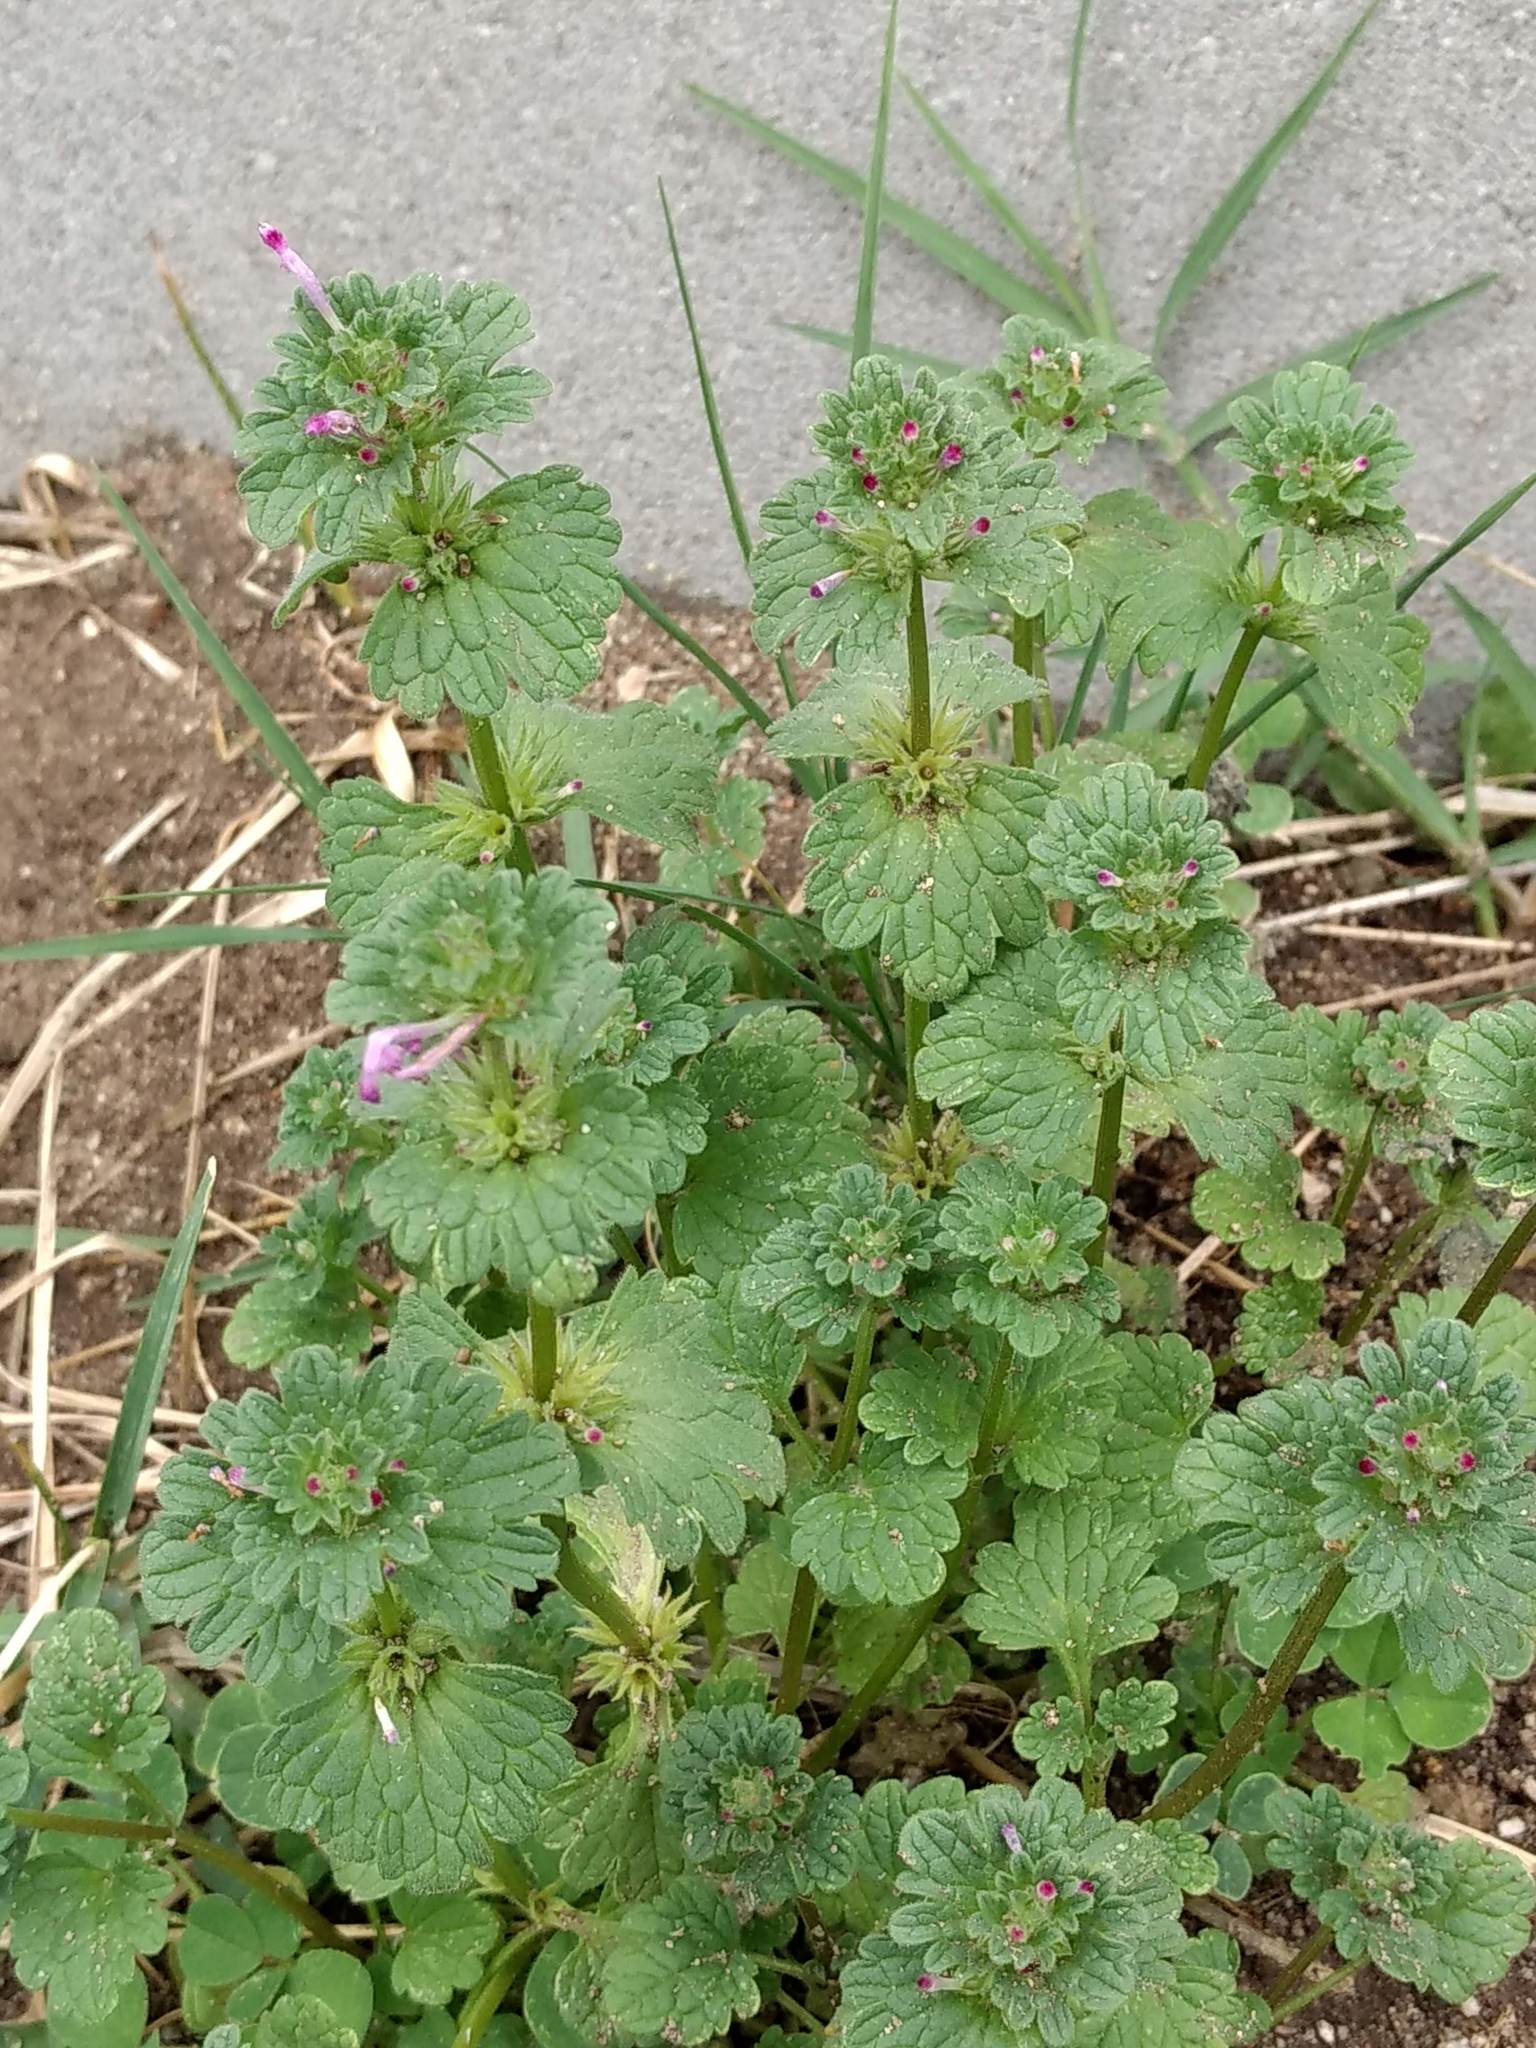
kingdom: Plantae
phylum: Tracheophyta
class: Magnoliopsida
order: Lamiales
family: Lamiaceae
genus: Lamium
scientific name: Lamium amplexicaule
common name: Henbit dead-nettle
